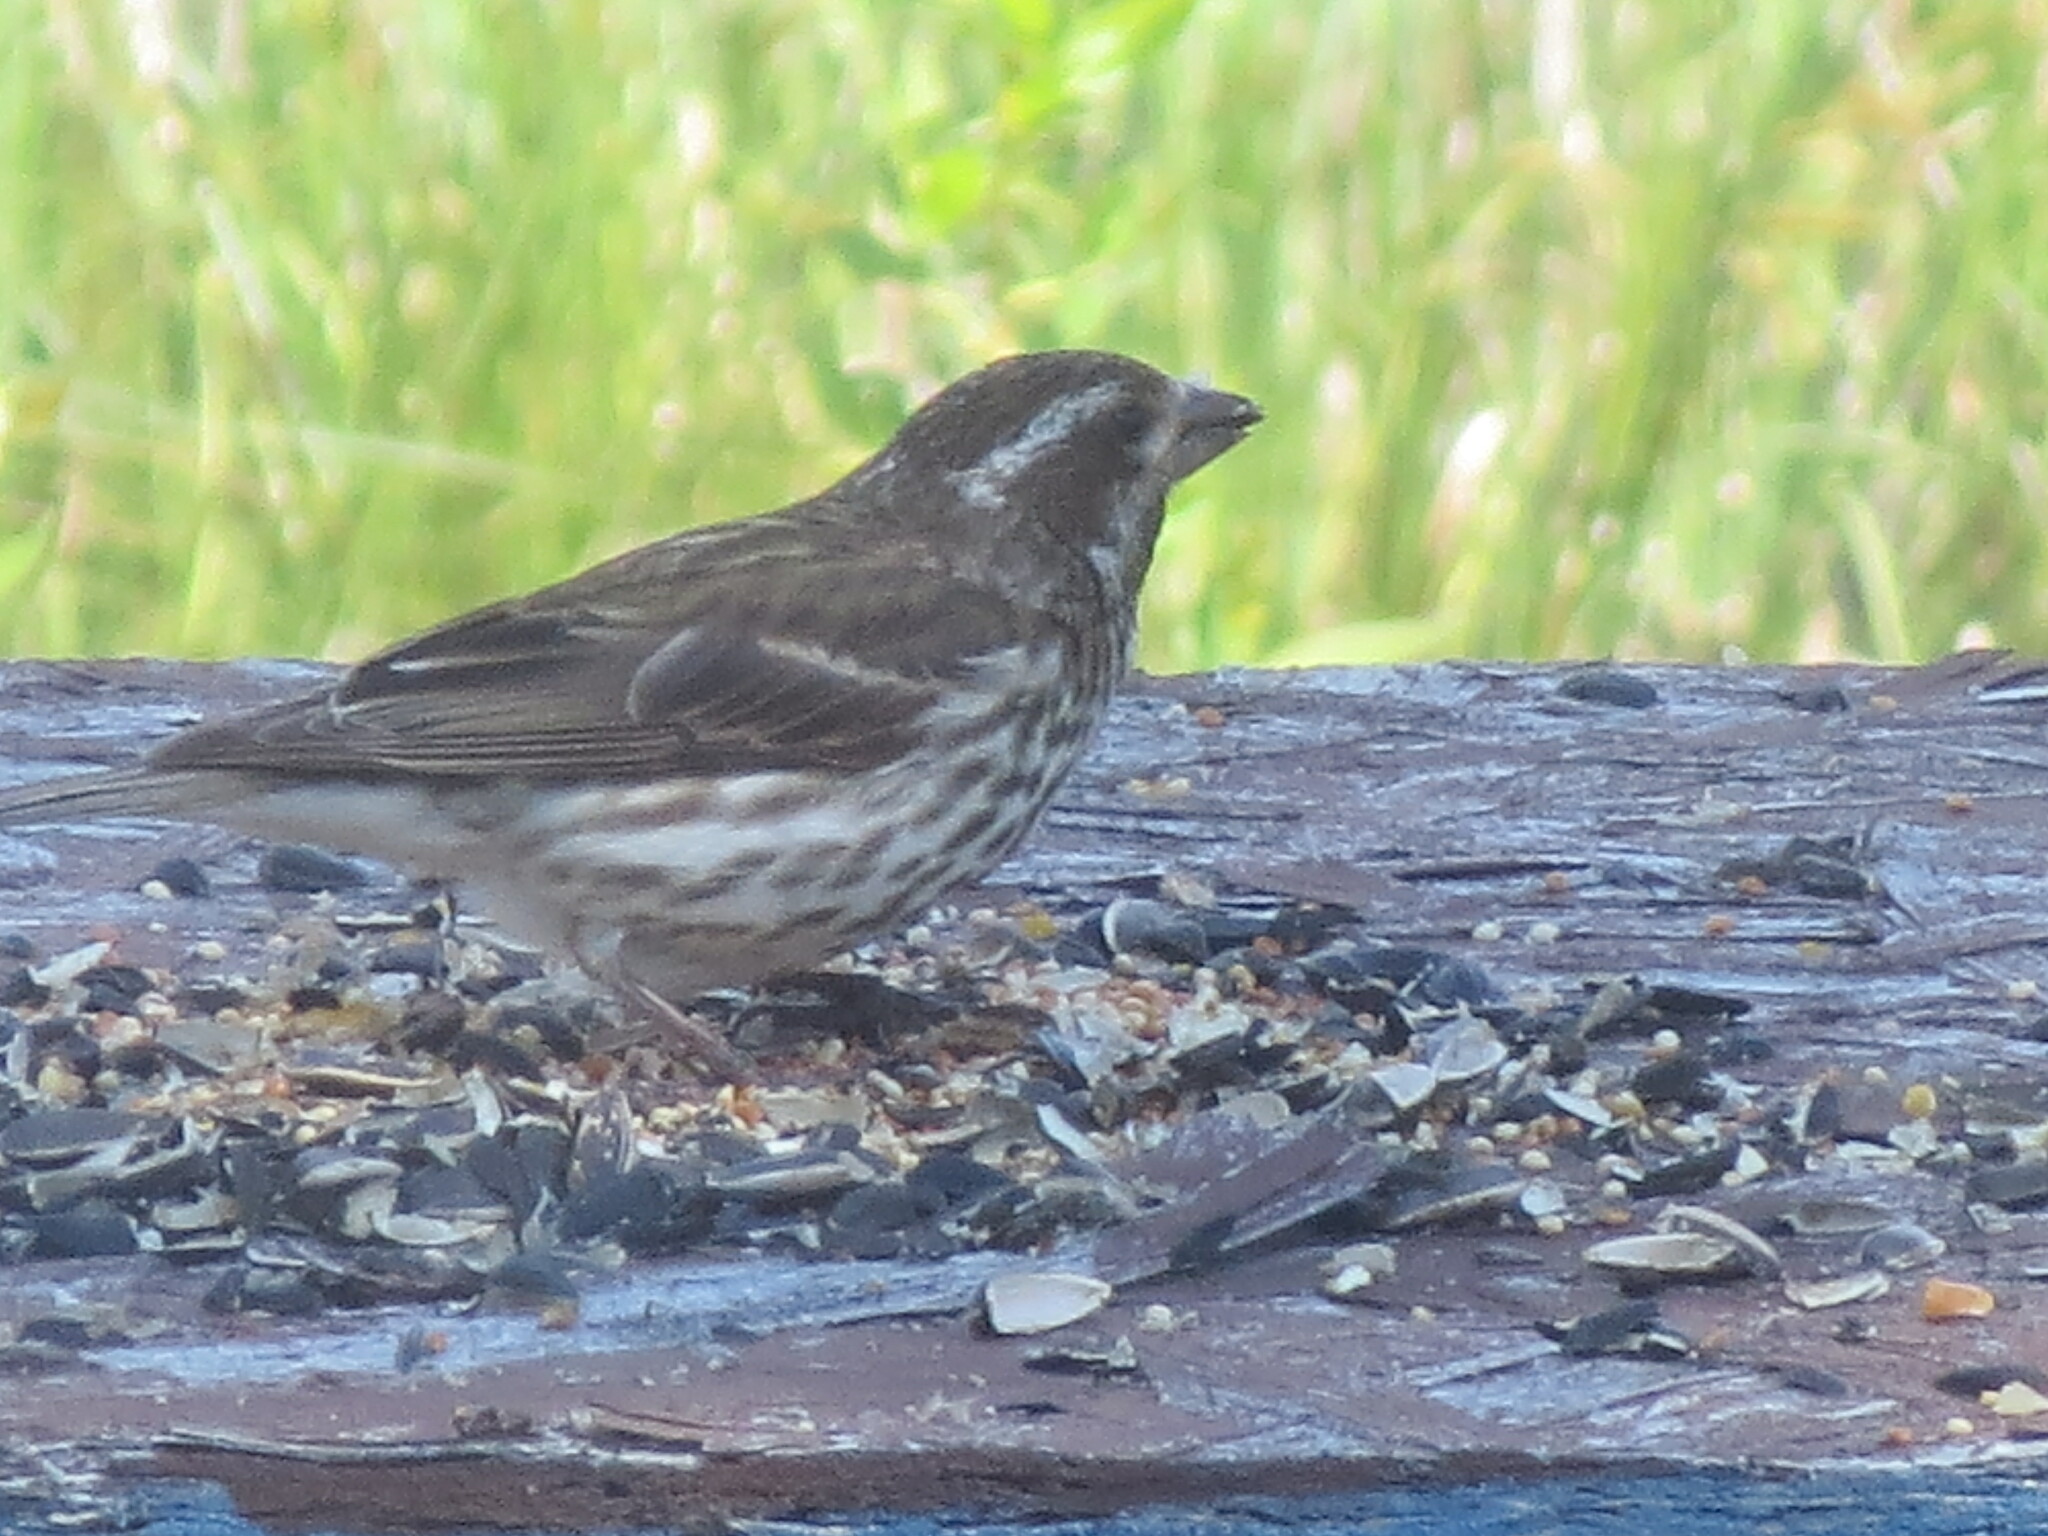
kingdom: Animalia
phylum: Chordata
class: Aves
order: Passeriformes
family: Fringillidae
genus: Haemorhous
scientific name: Haemorhous purpureus
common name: Purple finch
